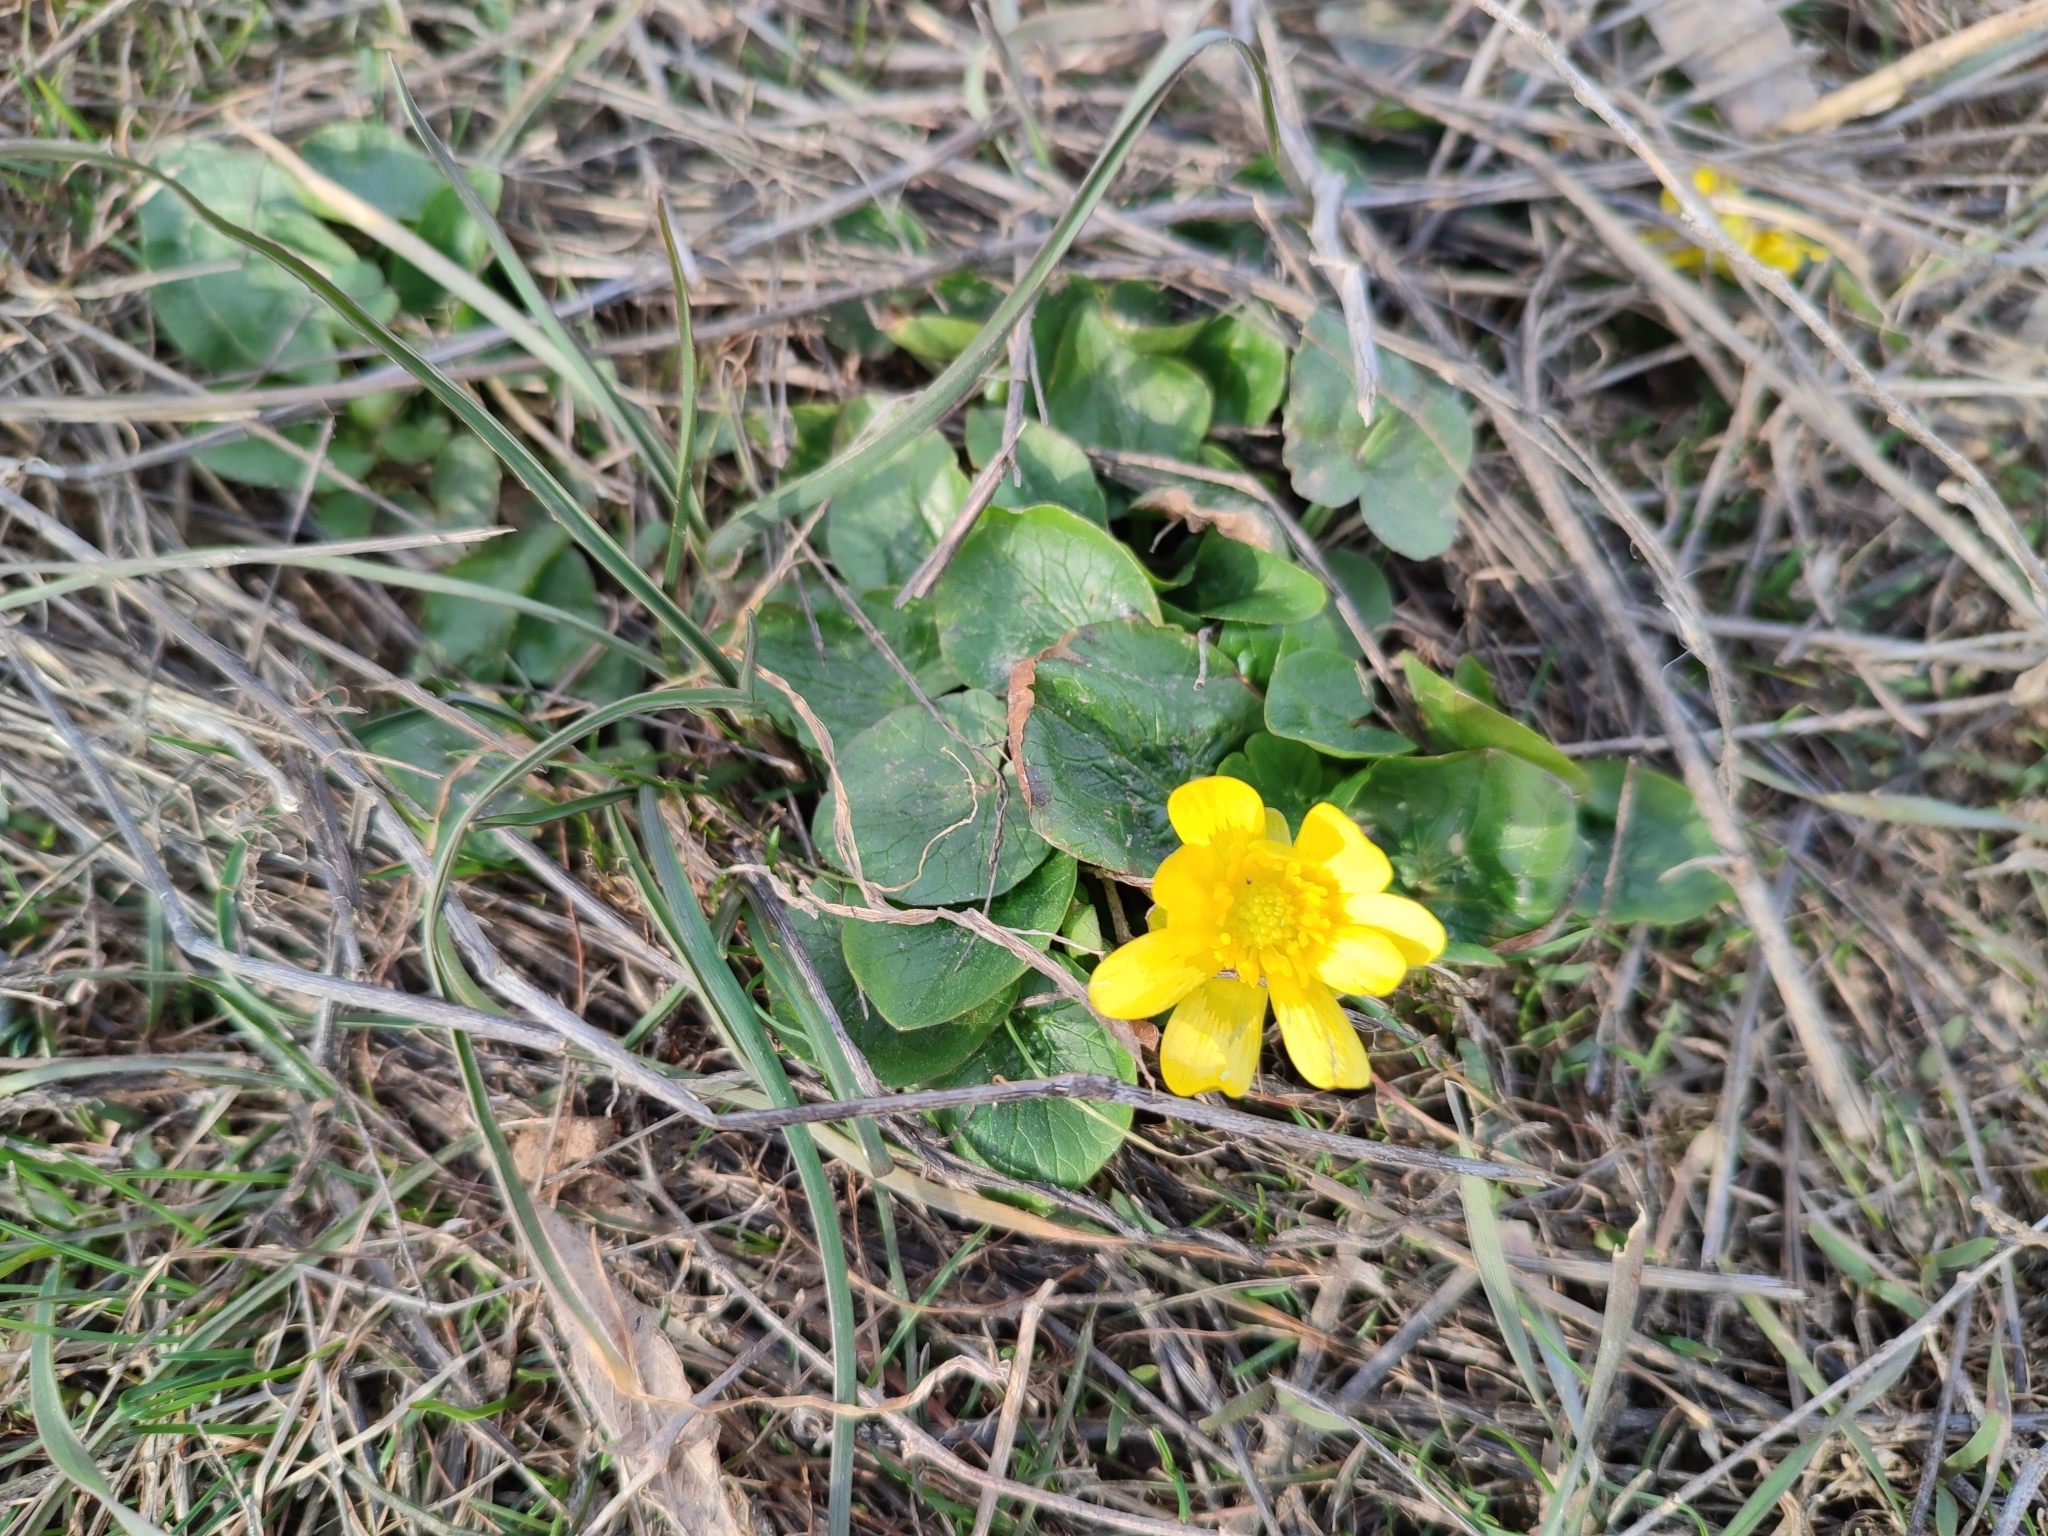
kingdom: Plantae
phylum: Tracheophyta
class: Magnoliopsida
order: Ranunculales
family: Ranunculaceae
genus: Ficaria
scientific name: Ficaria verna
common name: Lesser celandine
